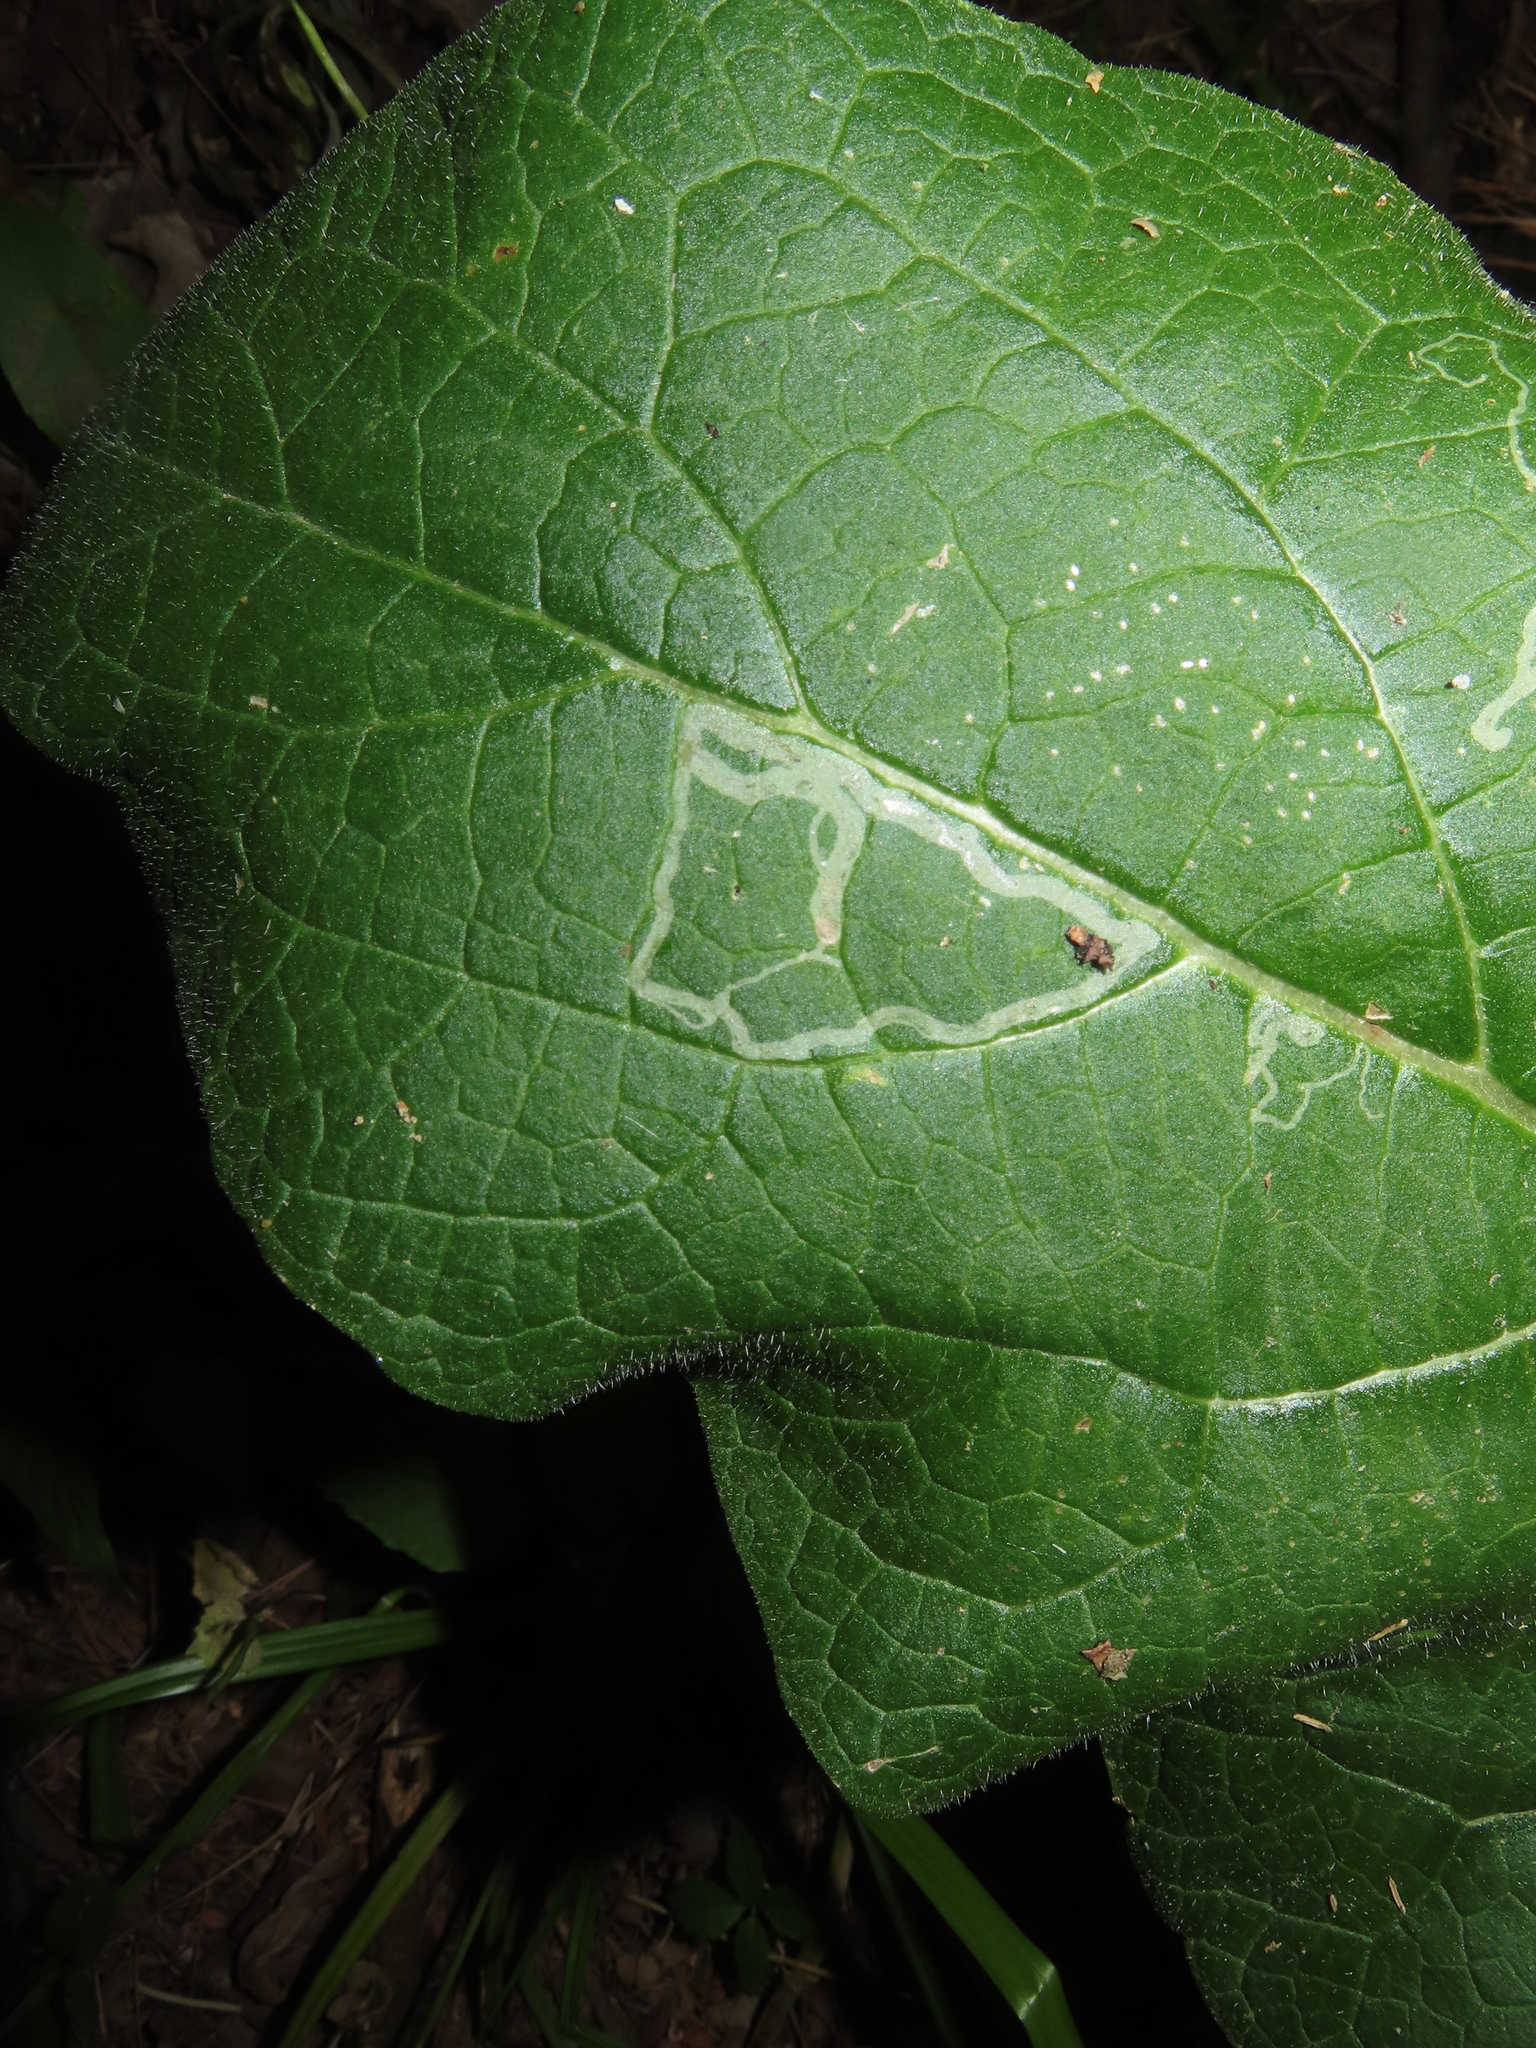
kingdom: Animalia
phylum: Arthropoda
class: Insecta
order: Diptera
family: Agromyzidae
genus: Liriomyza
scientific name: Liriomyza arctii
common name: Burdock leafminer
